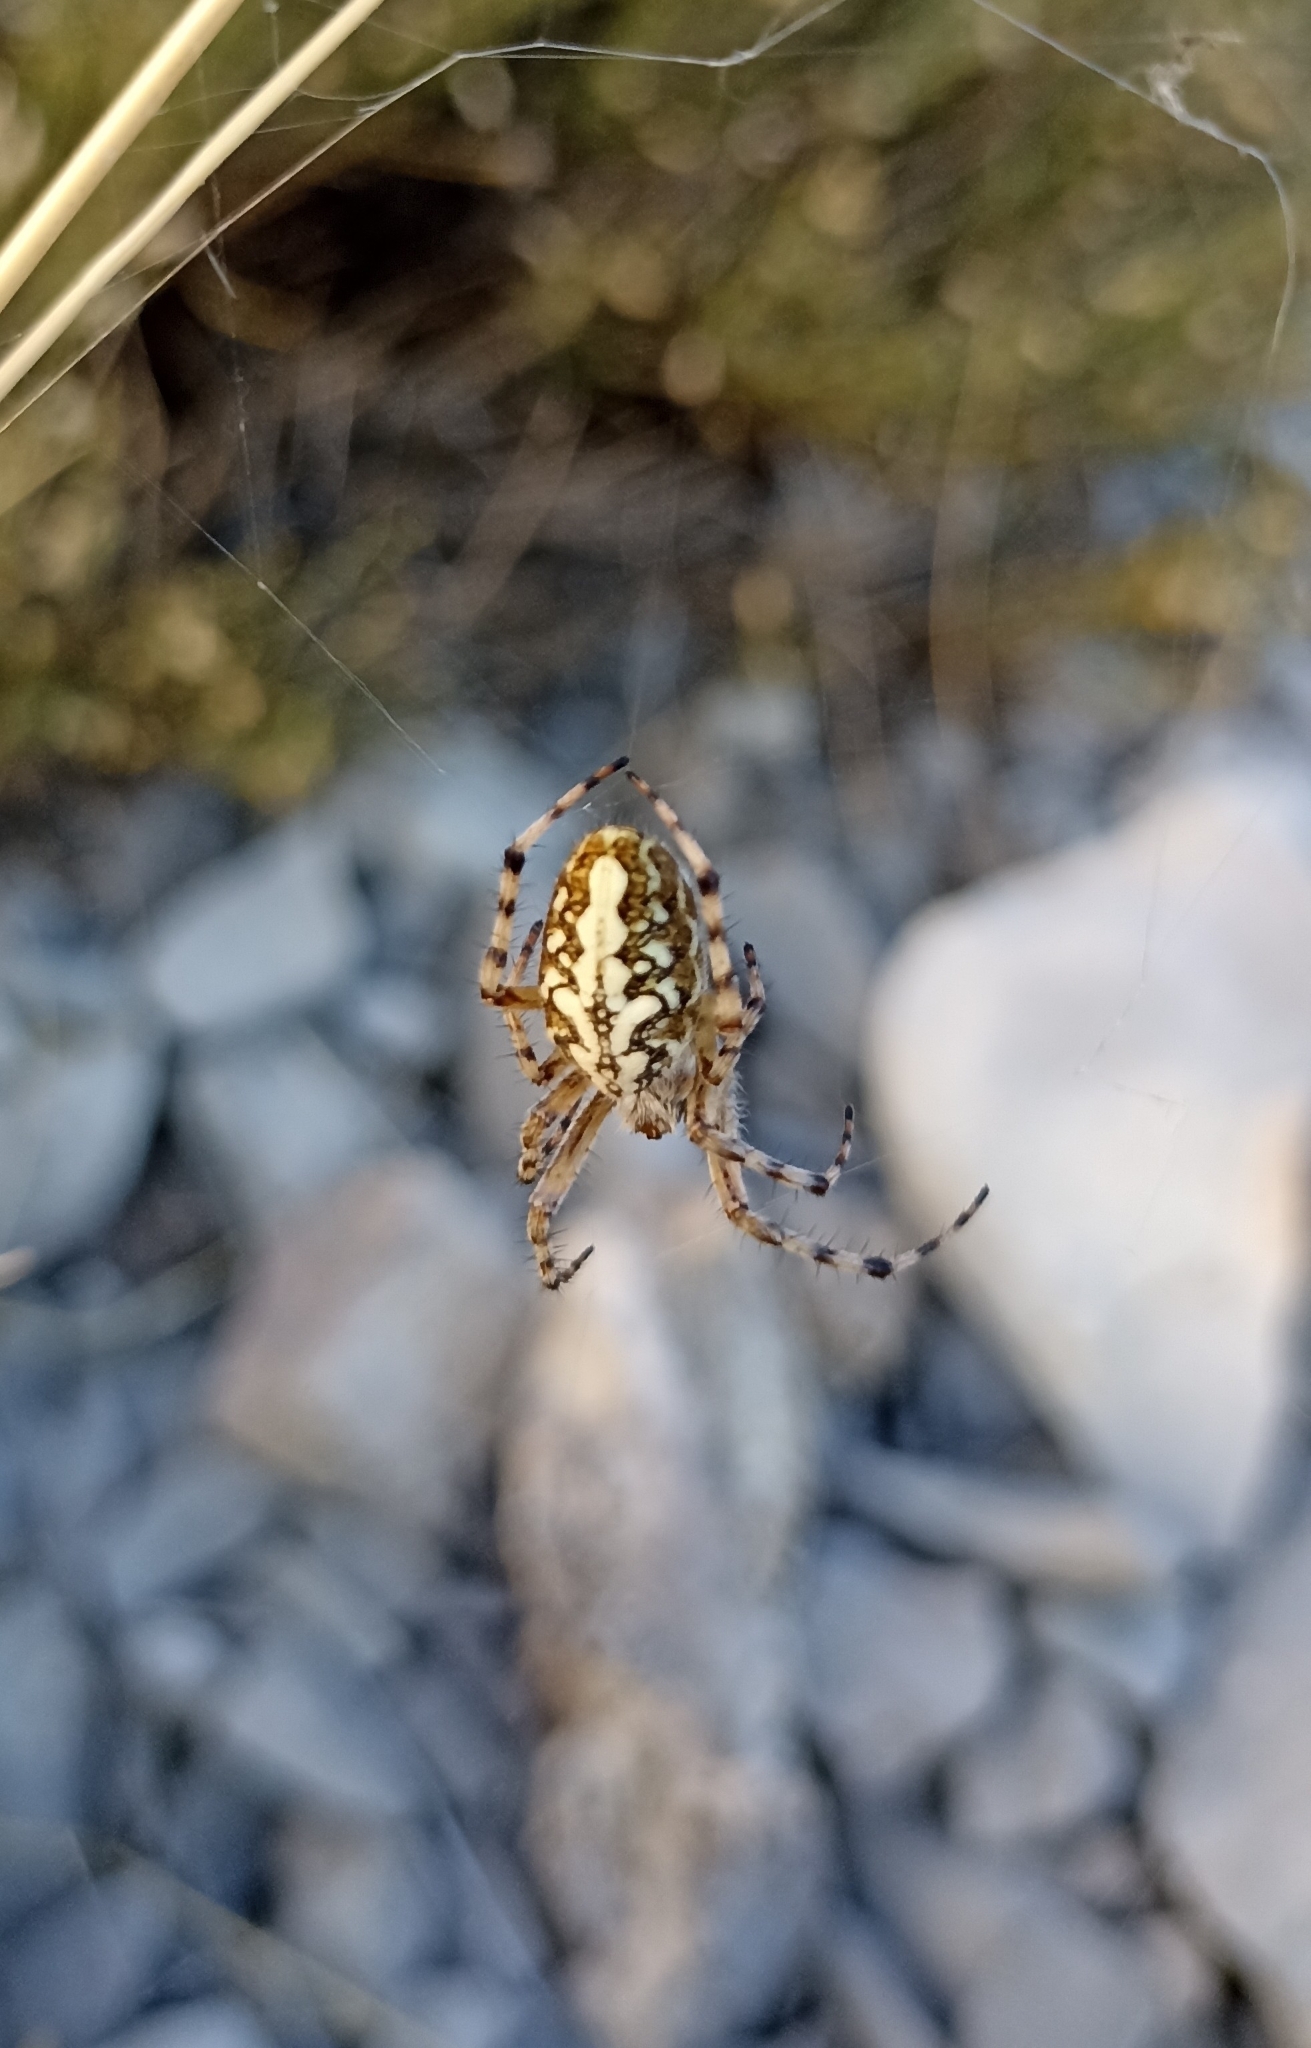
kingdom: Animalia
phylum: Arthropoda
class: Arachnida
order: Araneae
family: Araneidae
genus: Aculepeira
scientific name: Aculepeira ceropegia
